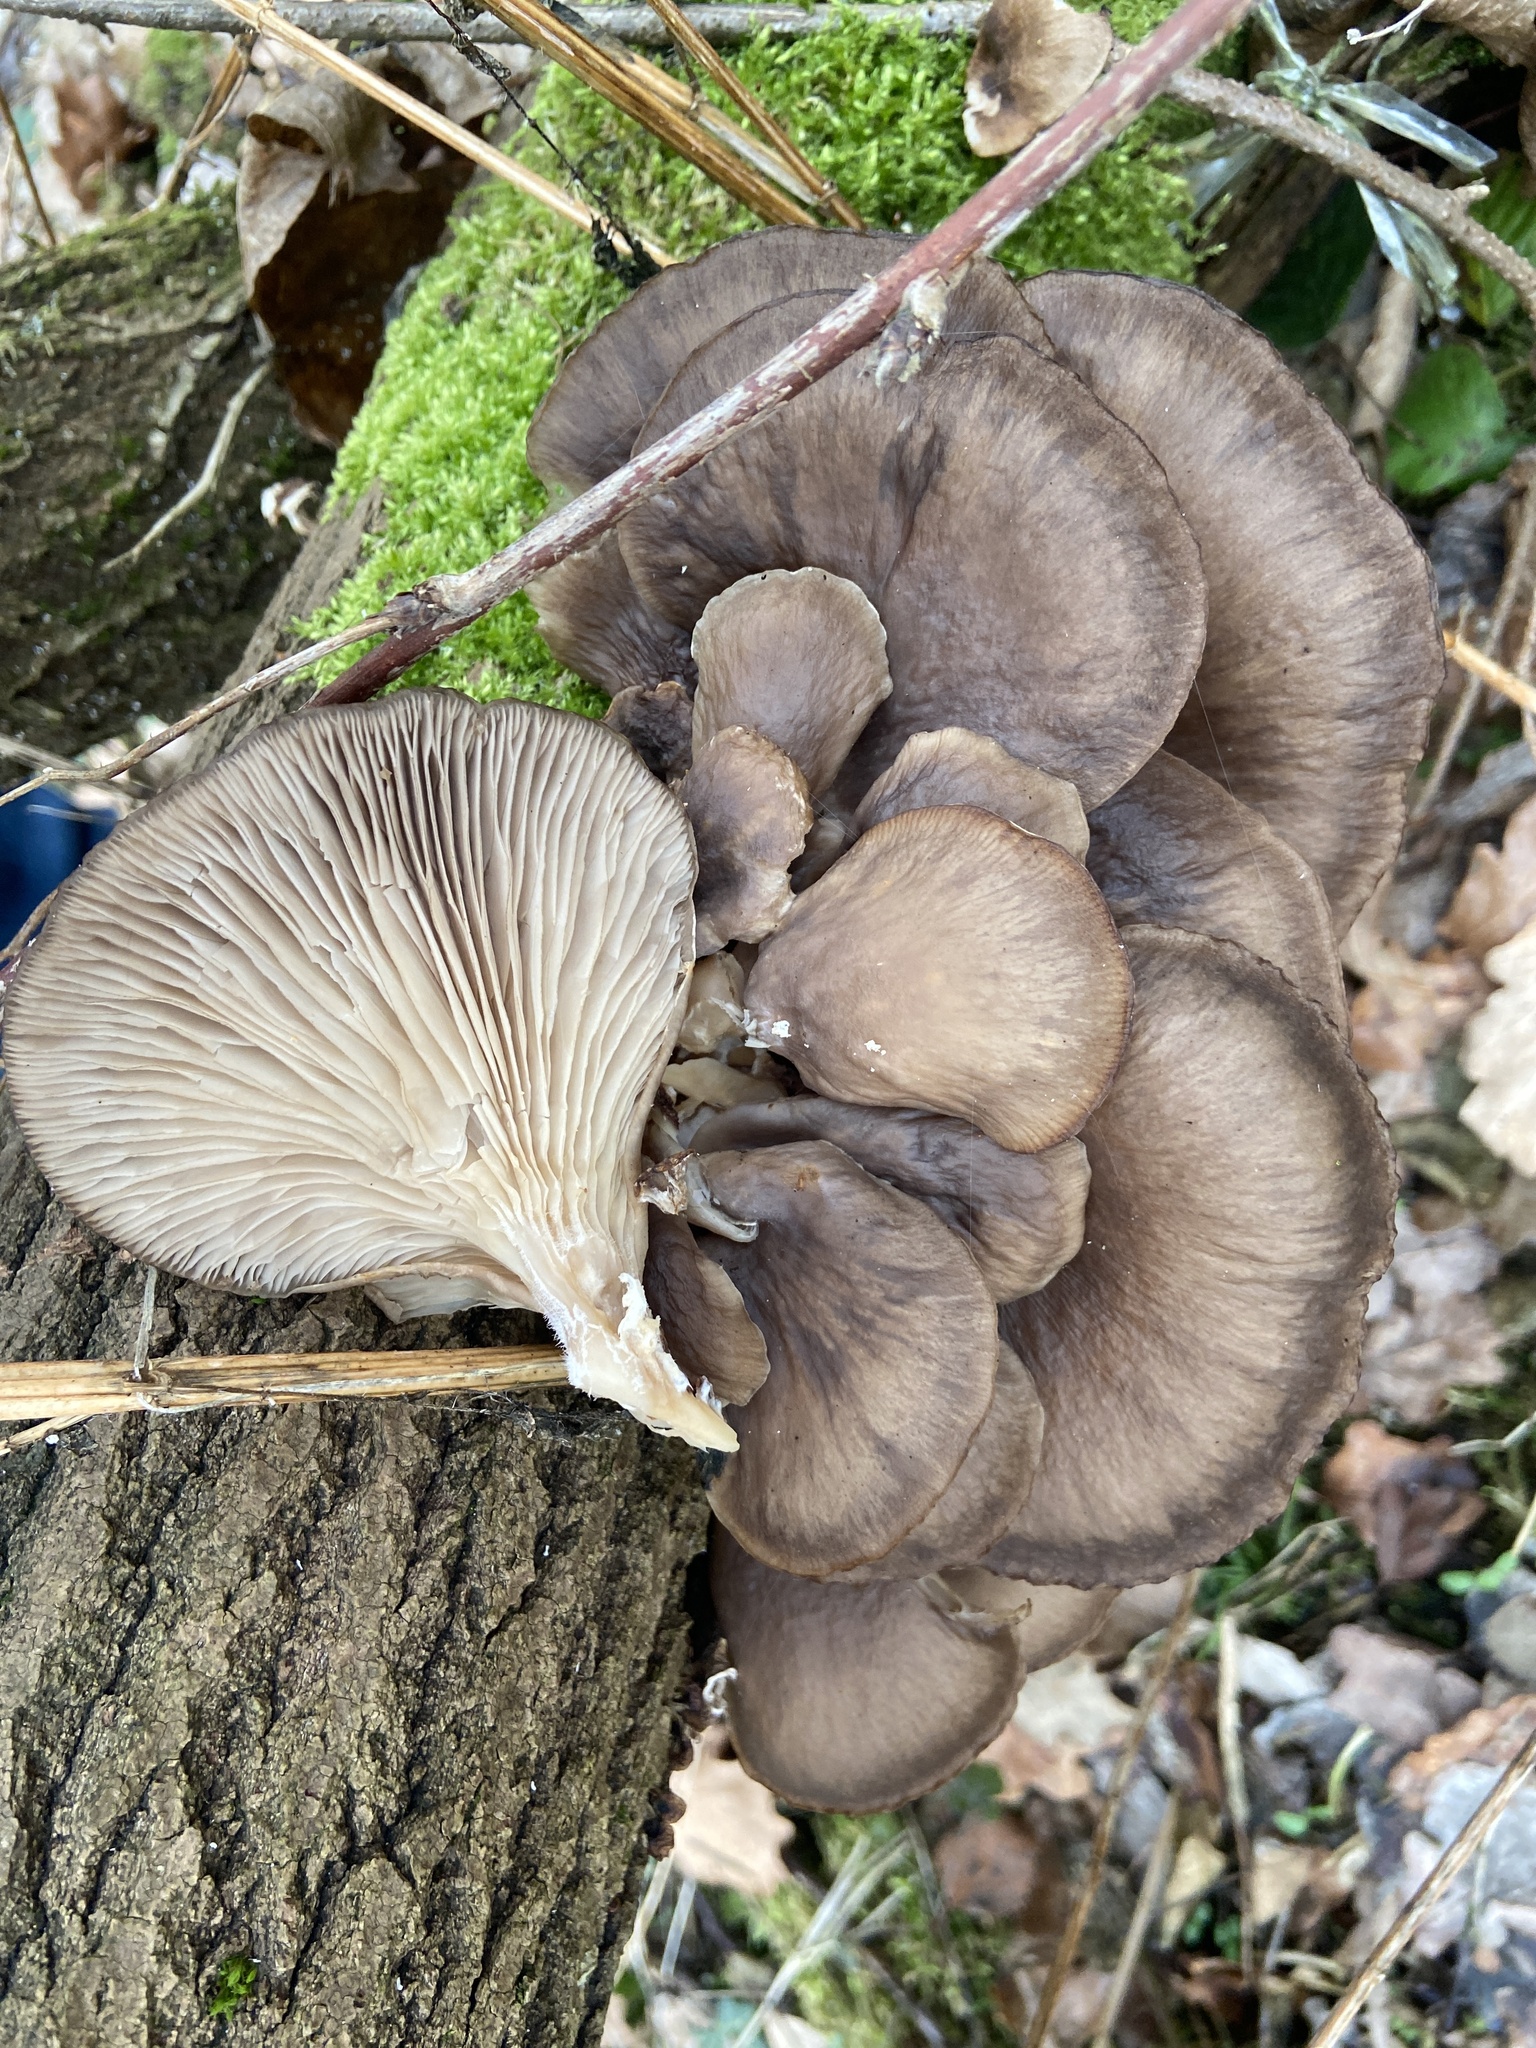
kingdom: Fungi
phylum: Basidiomycota
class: Agaricomycetes
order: Agaricales
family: Pleurotaceae
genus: Pleurotus
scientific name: Pleurotus ostreatus
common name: Oyster mushroom
